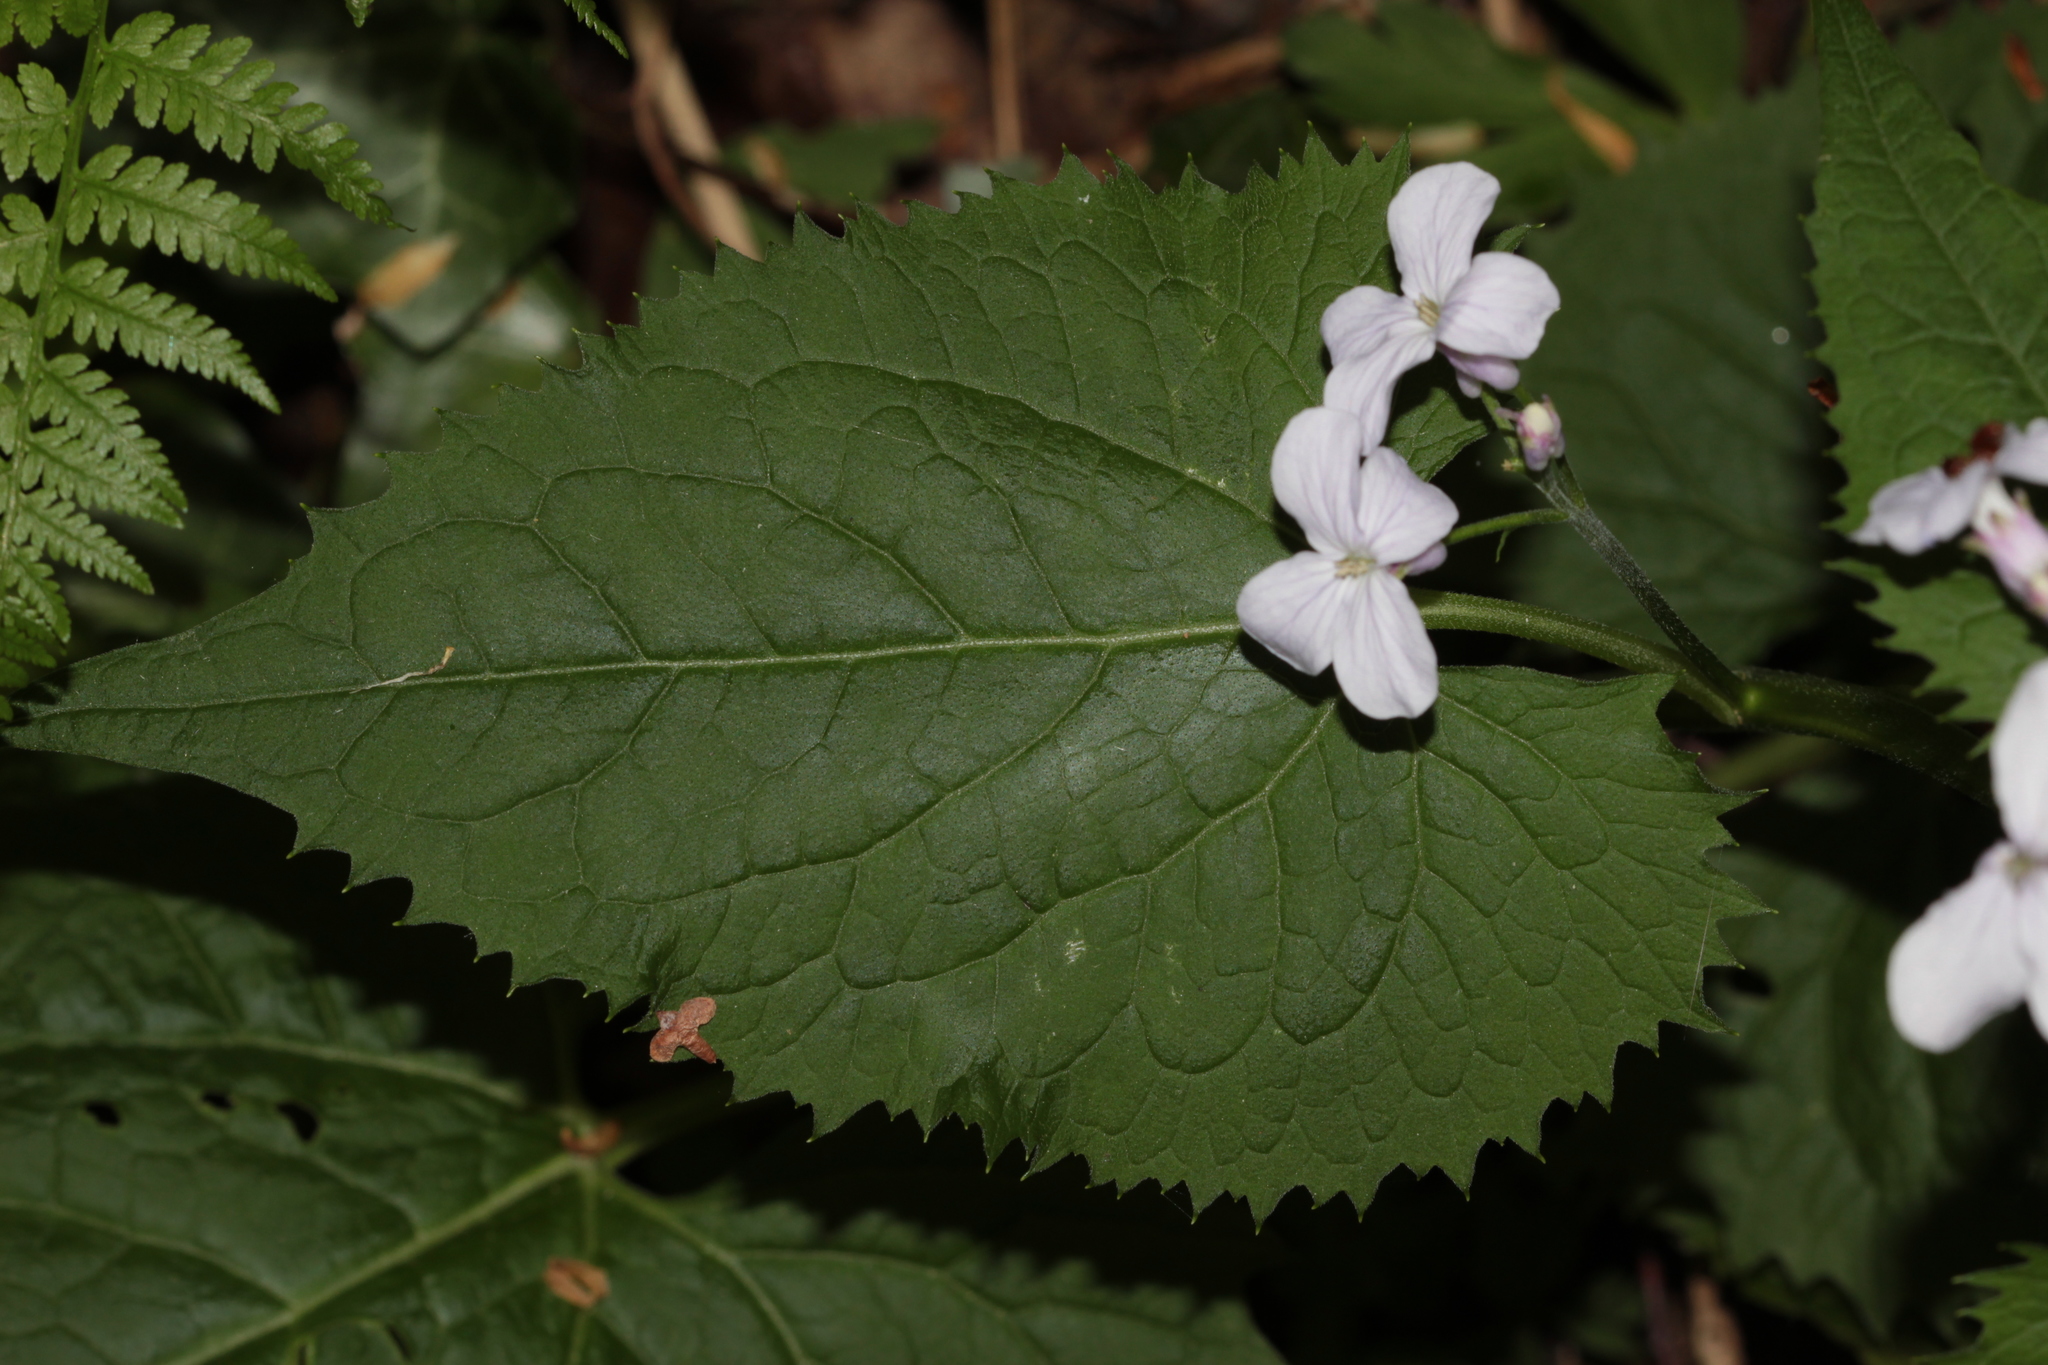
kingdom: Plantae
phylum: Tracheophyta
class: Magnoliopsida
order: Brassicales
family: Brassicaceae
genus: Lunaria
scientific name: Lunaria rediviva
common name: Perennial honesty
